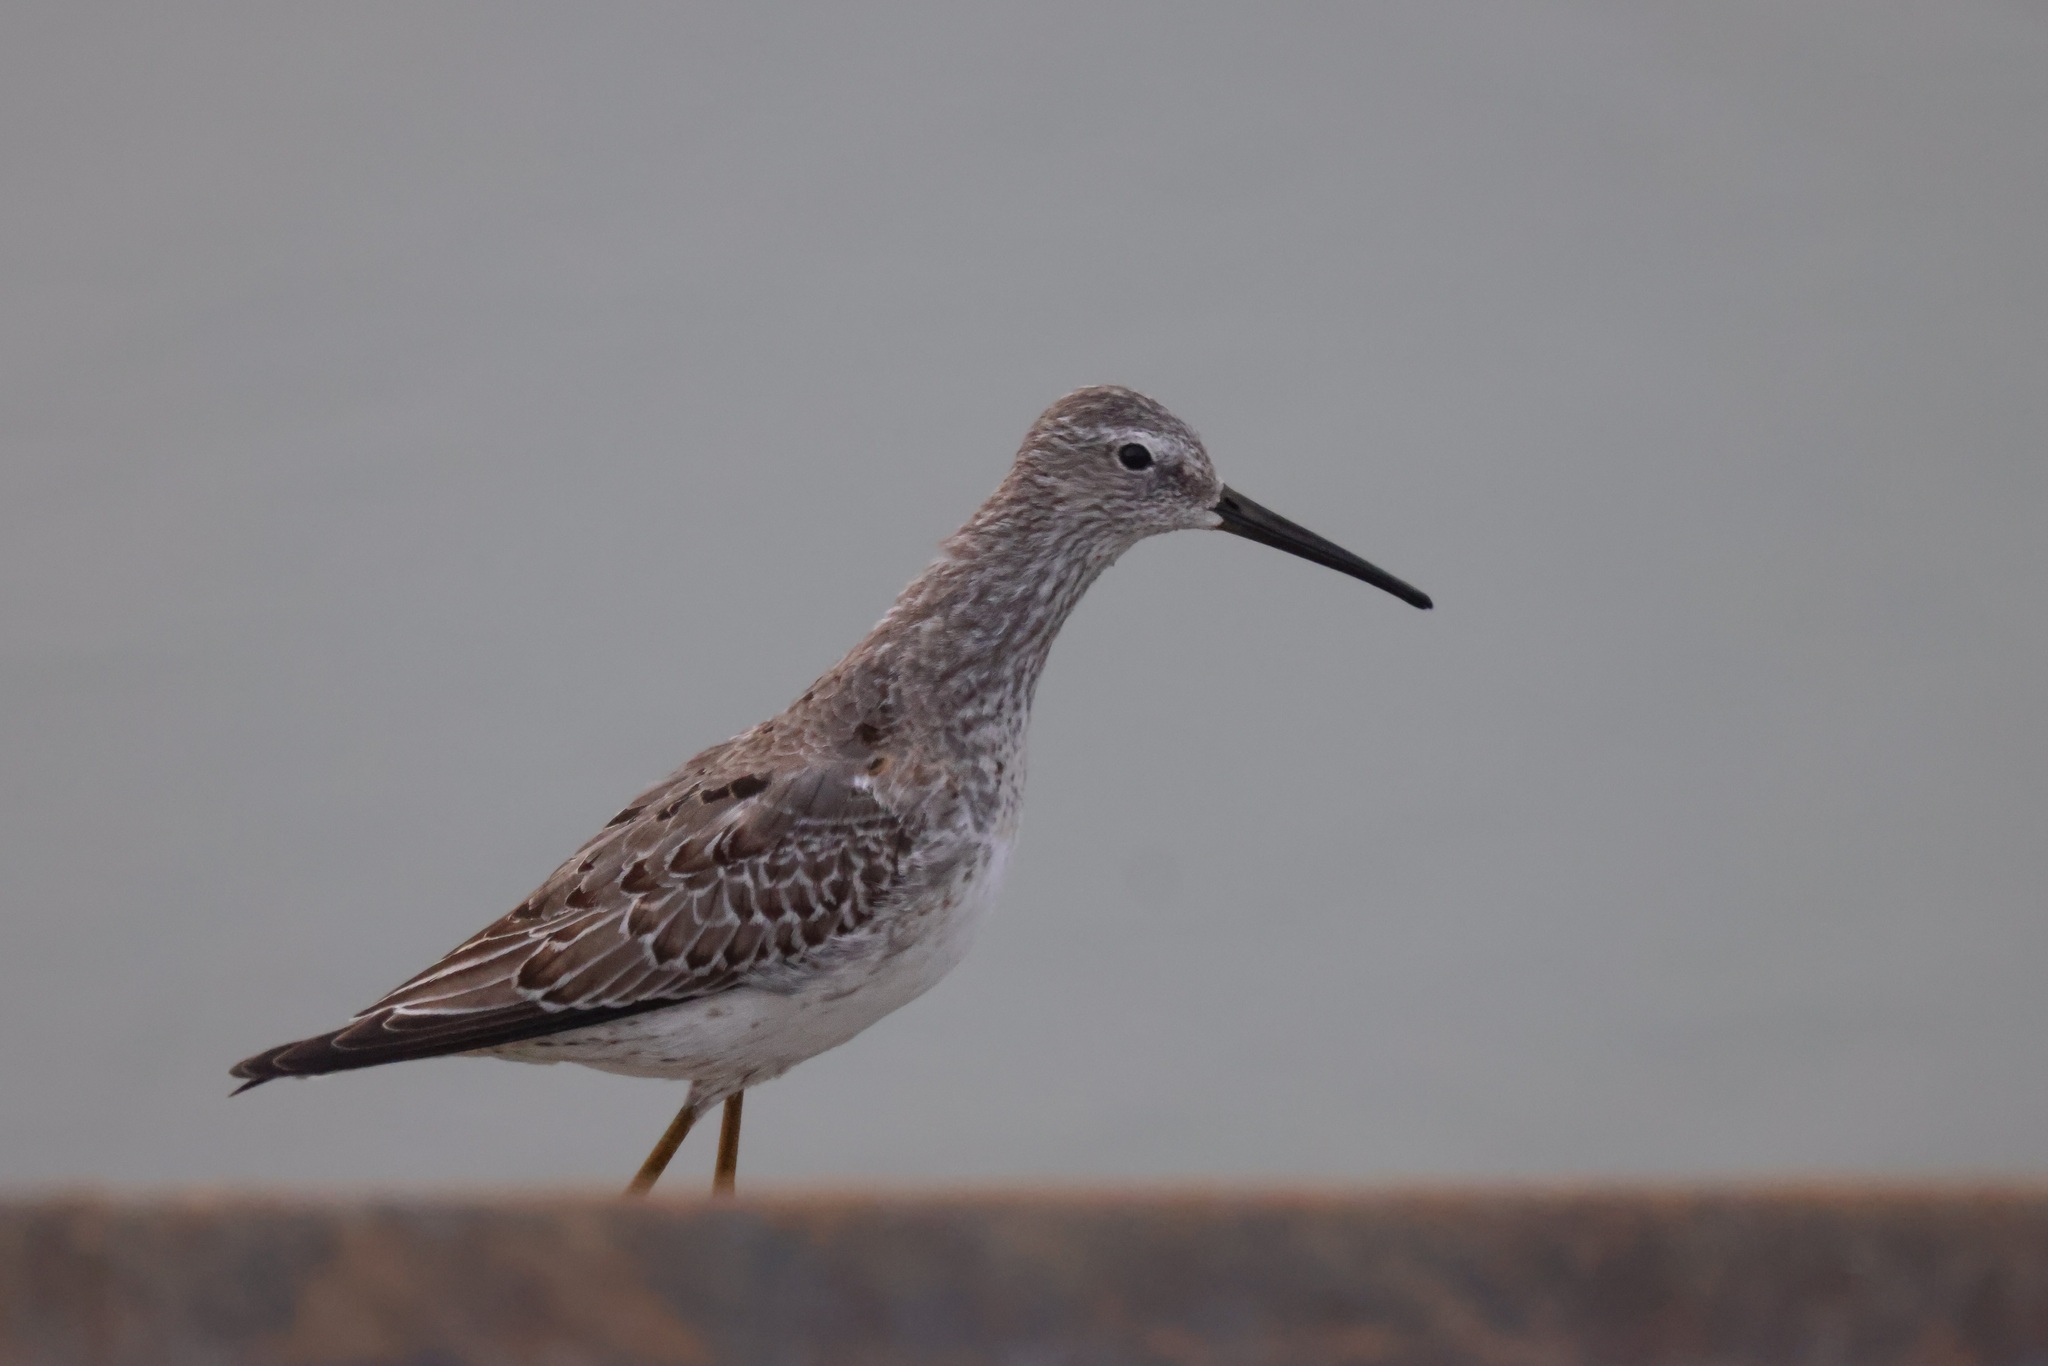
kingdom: Animalia
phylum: Chordata
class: Aves
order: Charadriiformes
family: Scolopacidae
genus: Calidris
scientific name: Calidris himantopus
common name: Stilt sandpiper
